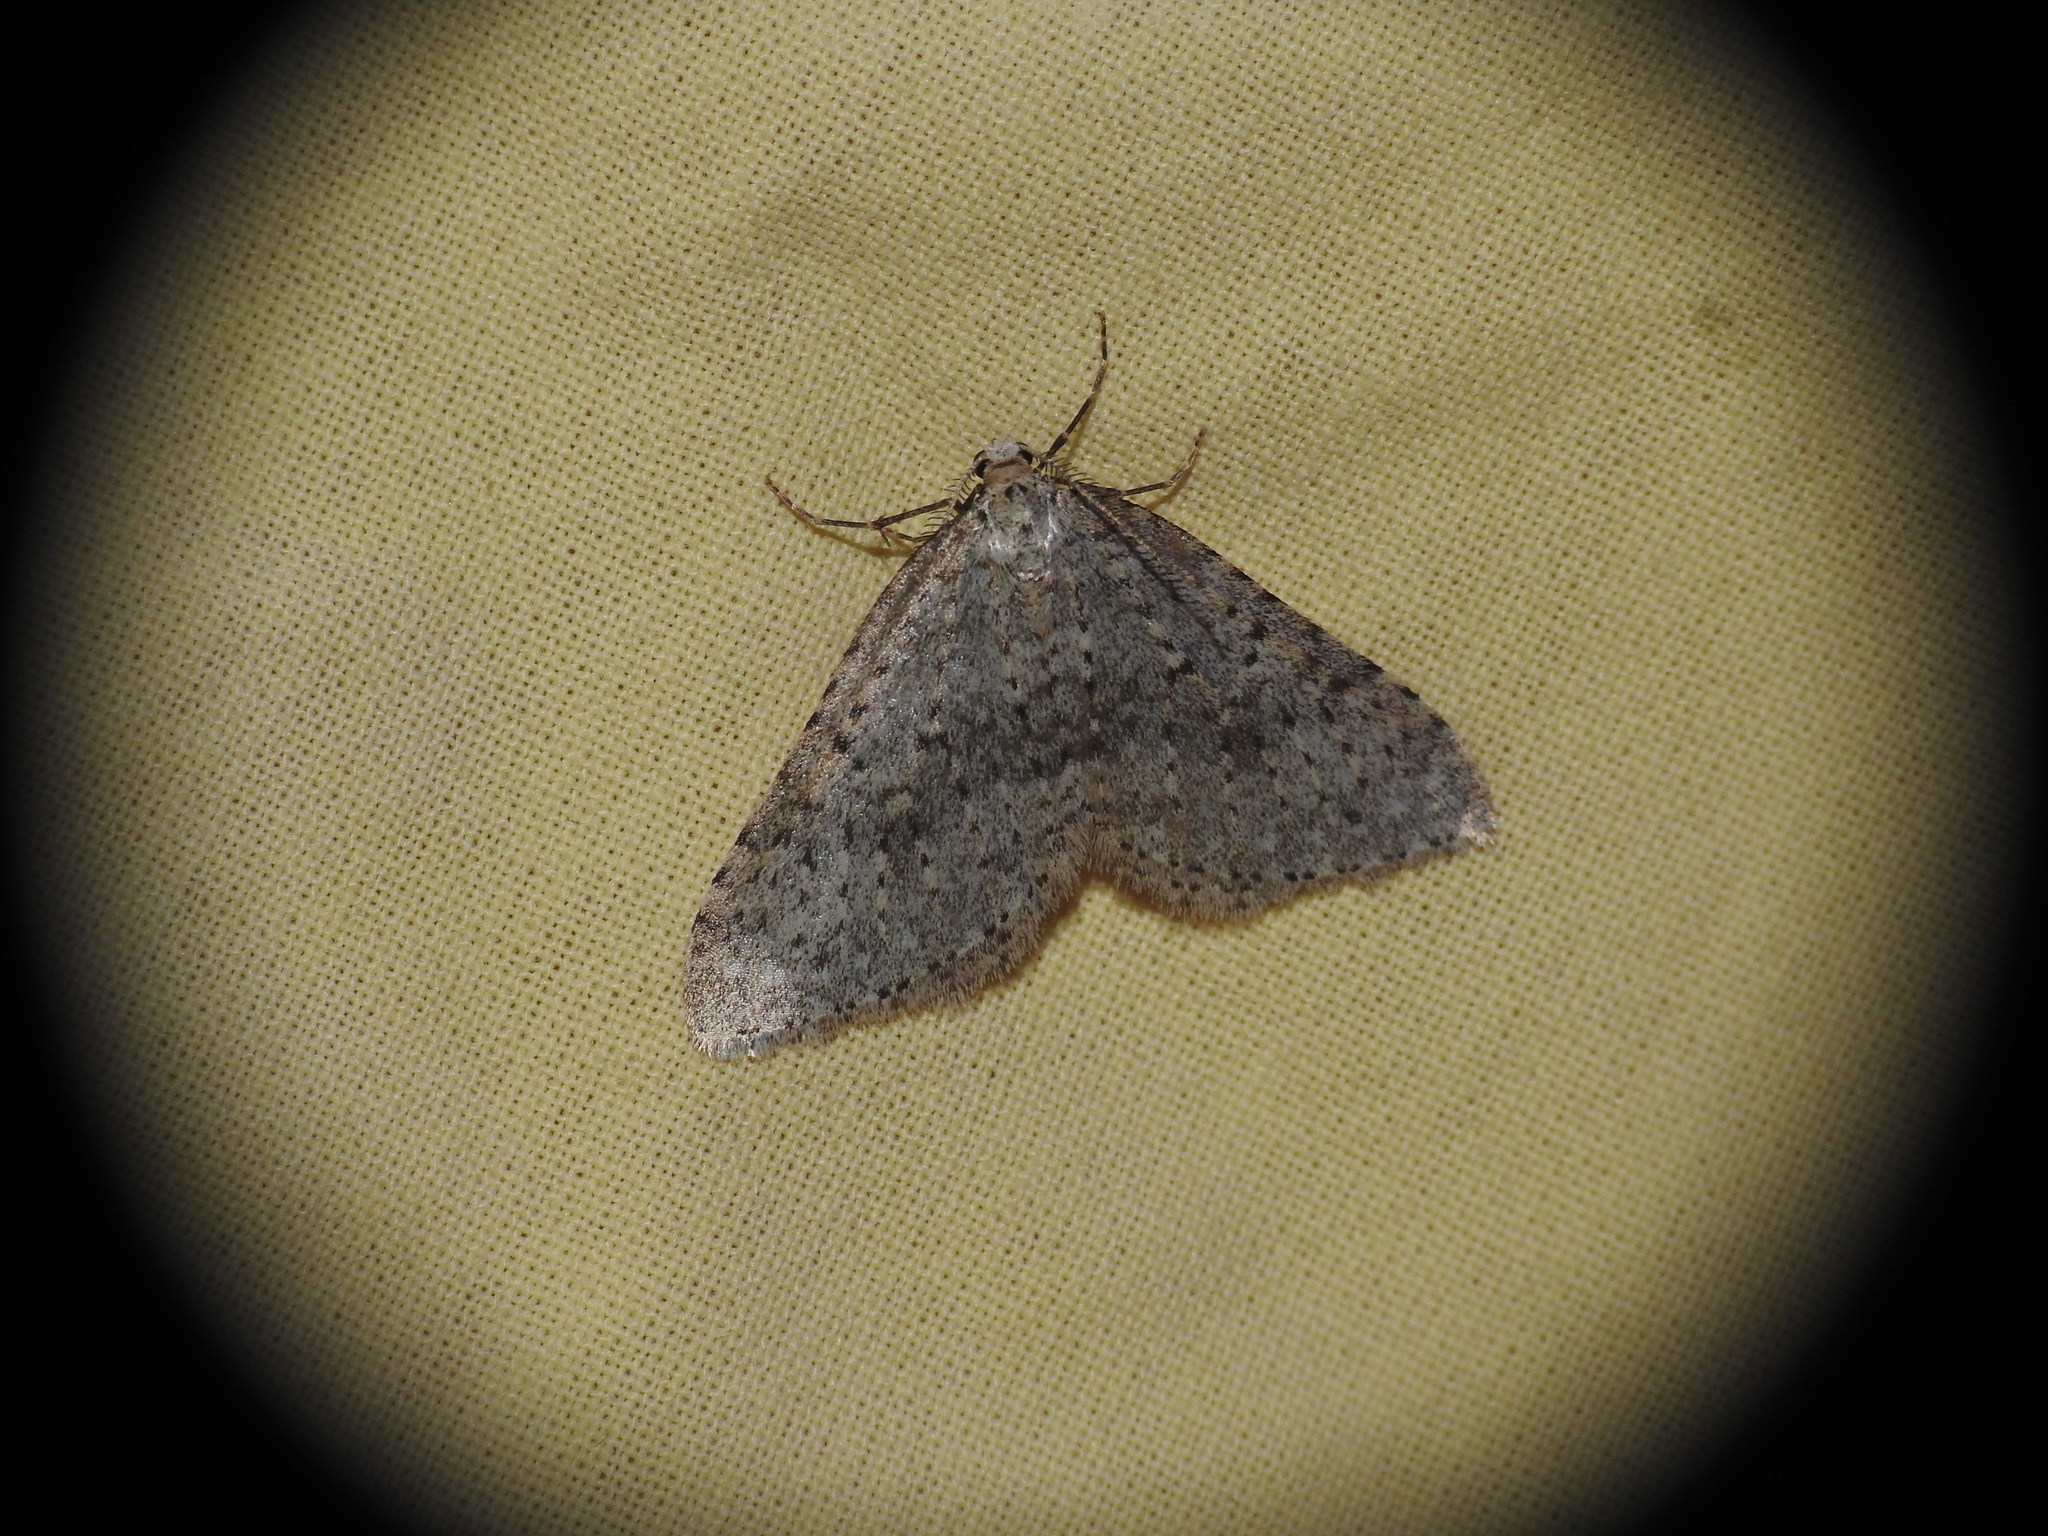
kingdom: Animalia
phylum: Arthropoda
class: Insecta
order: Lepidoptera
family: Geometridae
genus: Colostygia
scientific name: Colostygia multistrigaria
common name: Mottled grey
